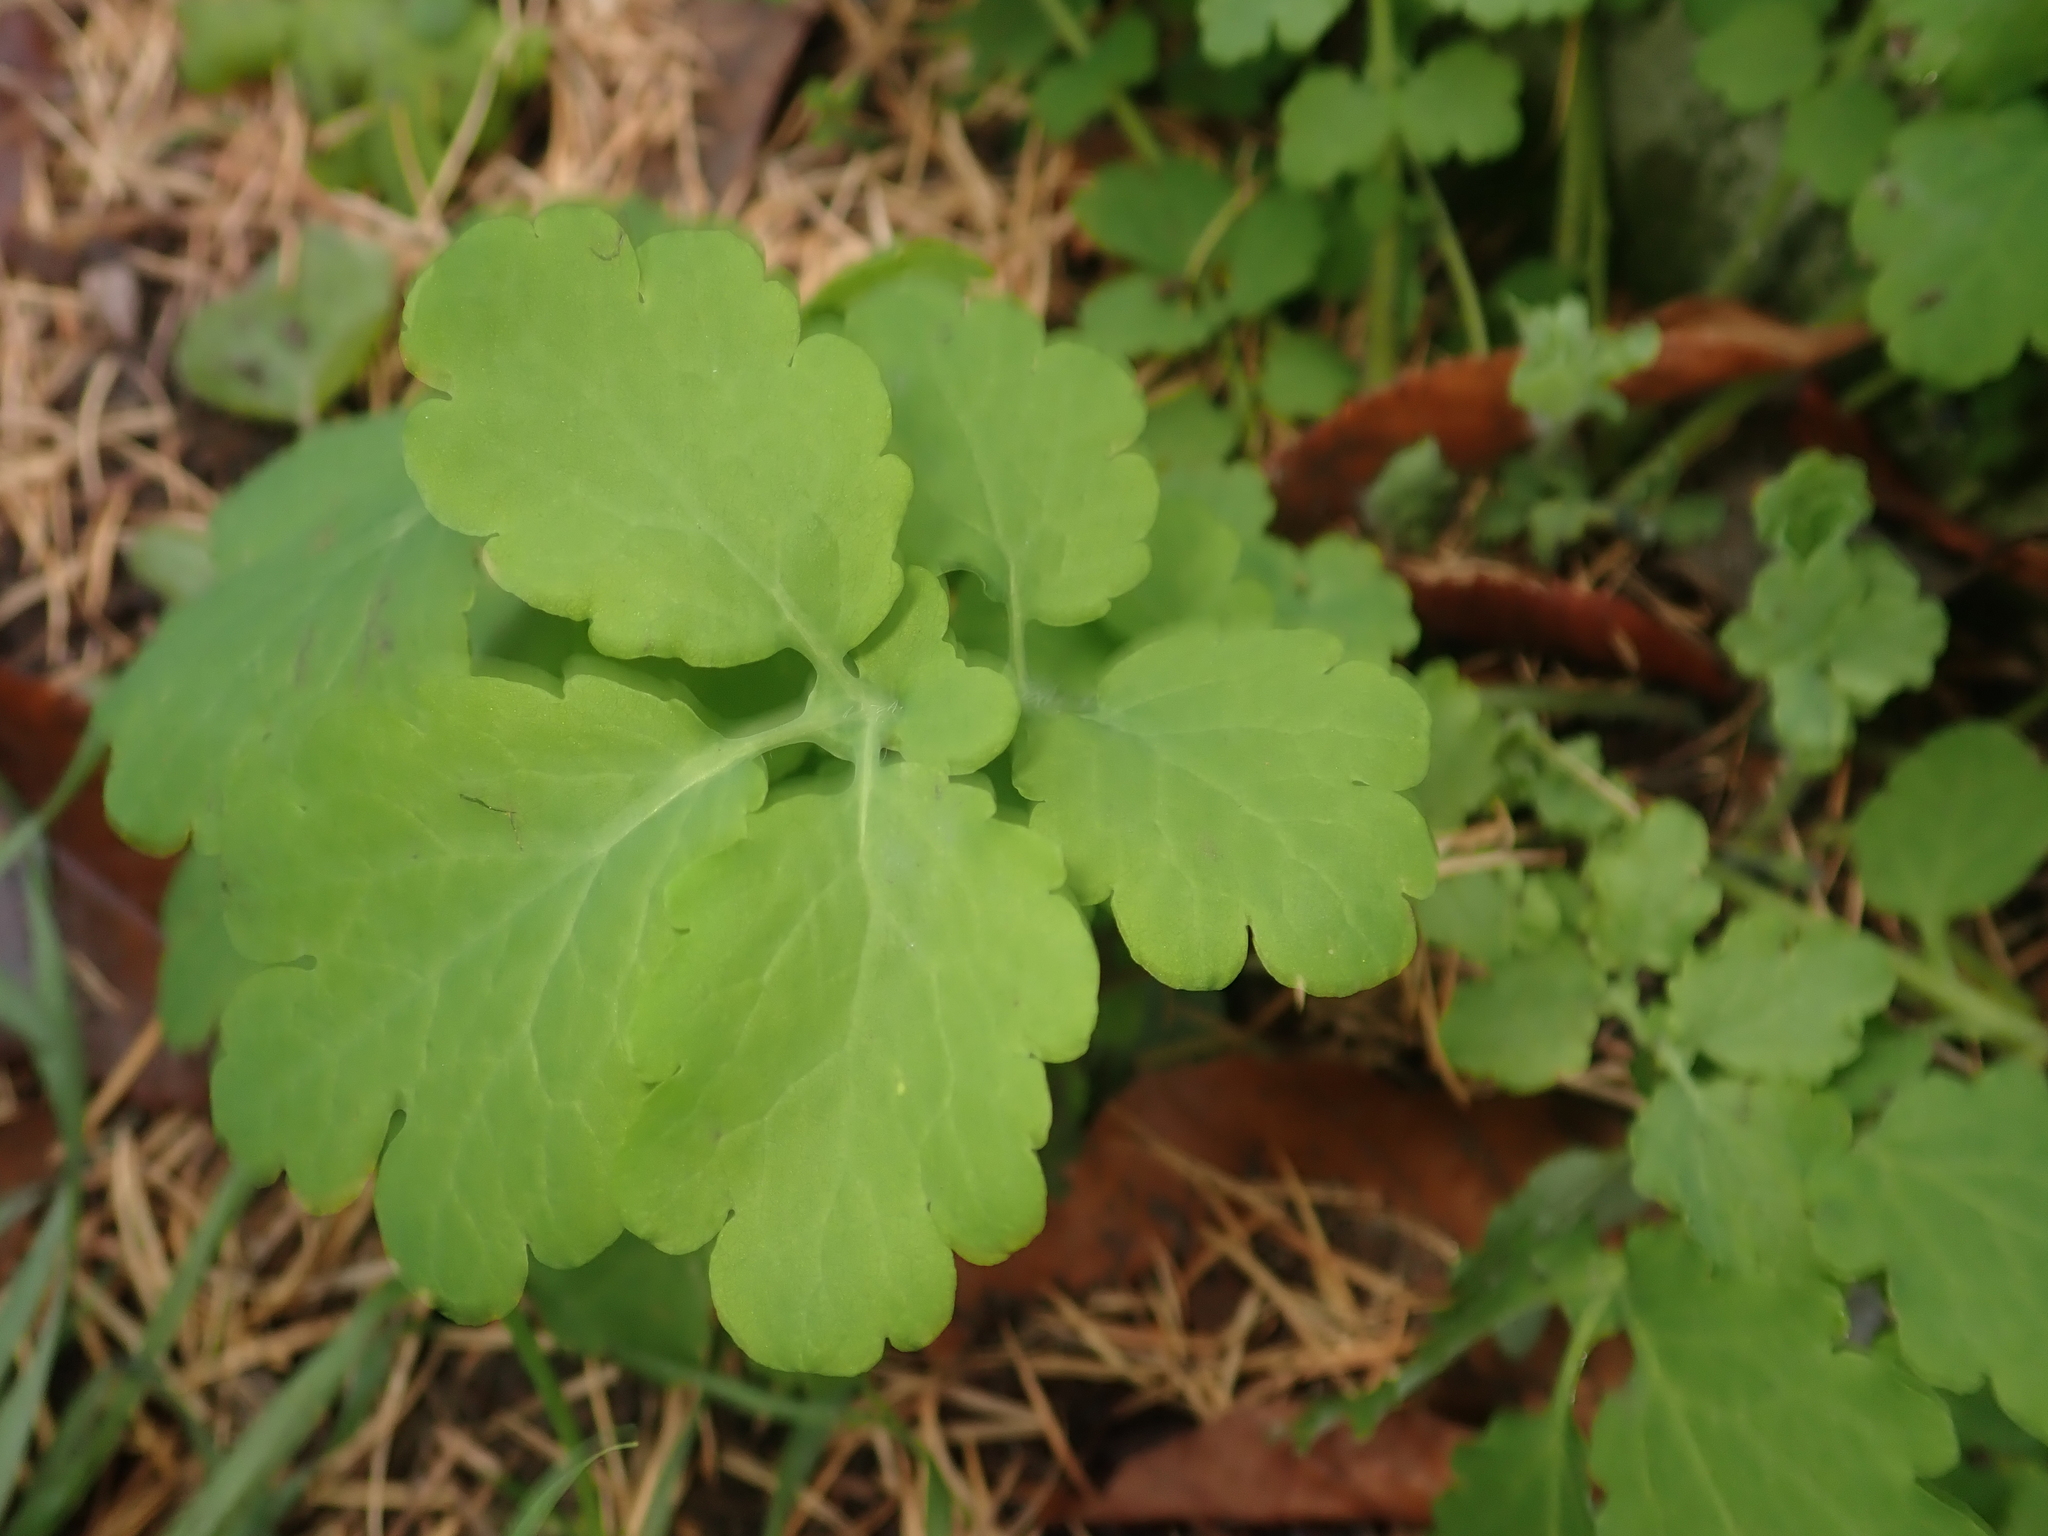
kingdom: Plantae
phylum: Tracheophyta
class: Magnoliopsida
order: Ranunculales
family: Papaveraceae
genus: Chelidonium
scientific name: Chelidonium majus
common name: Greater celandine
